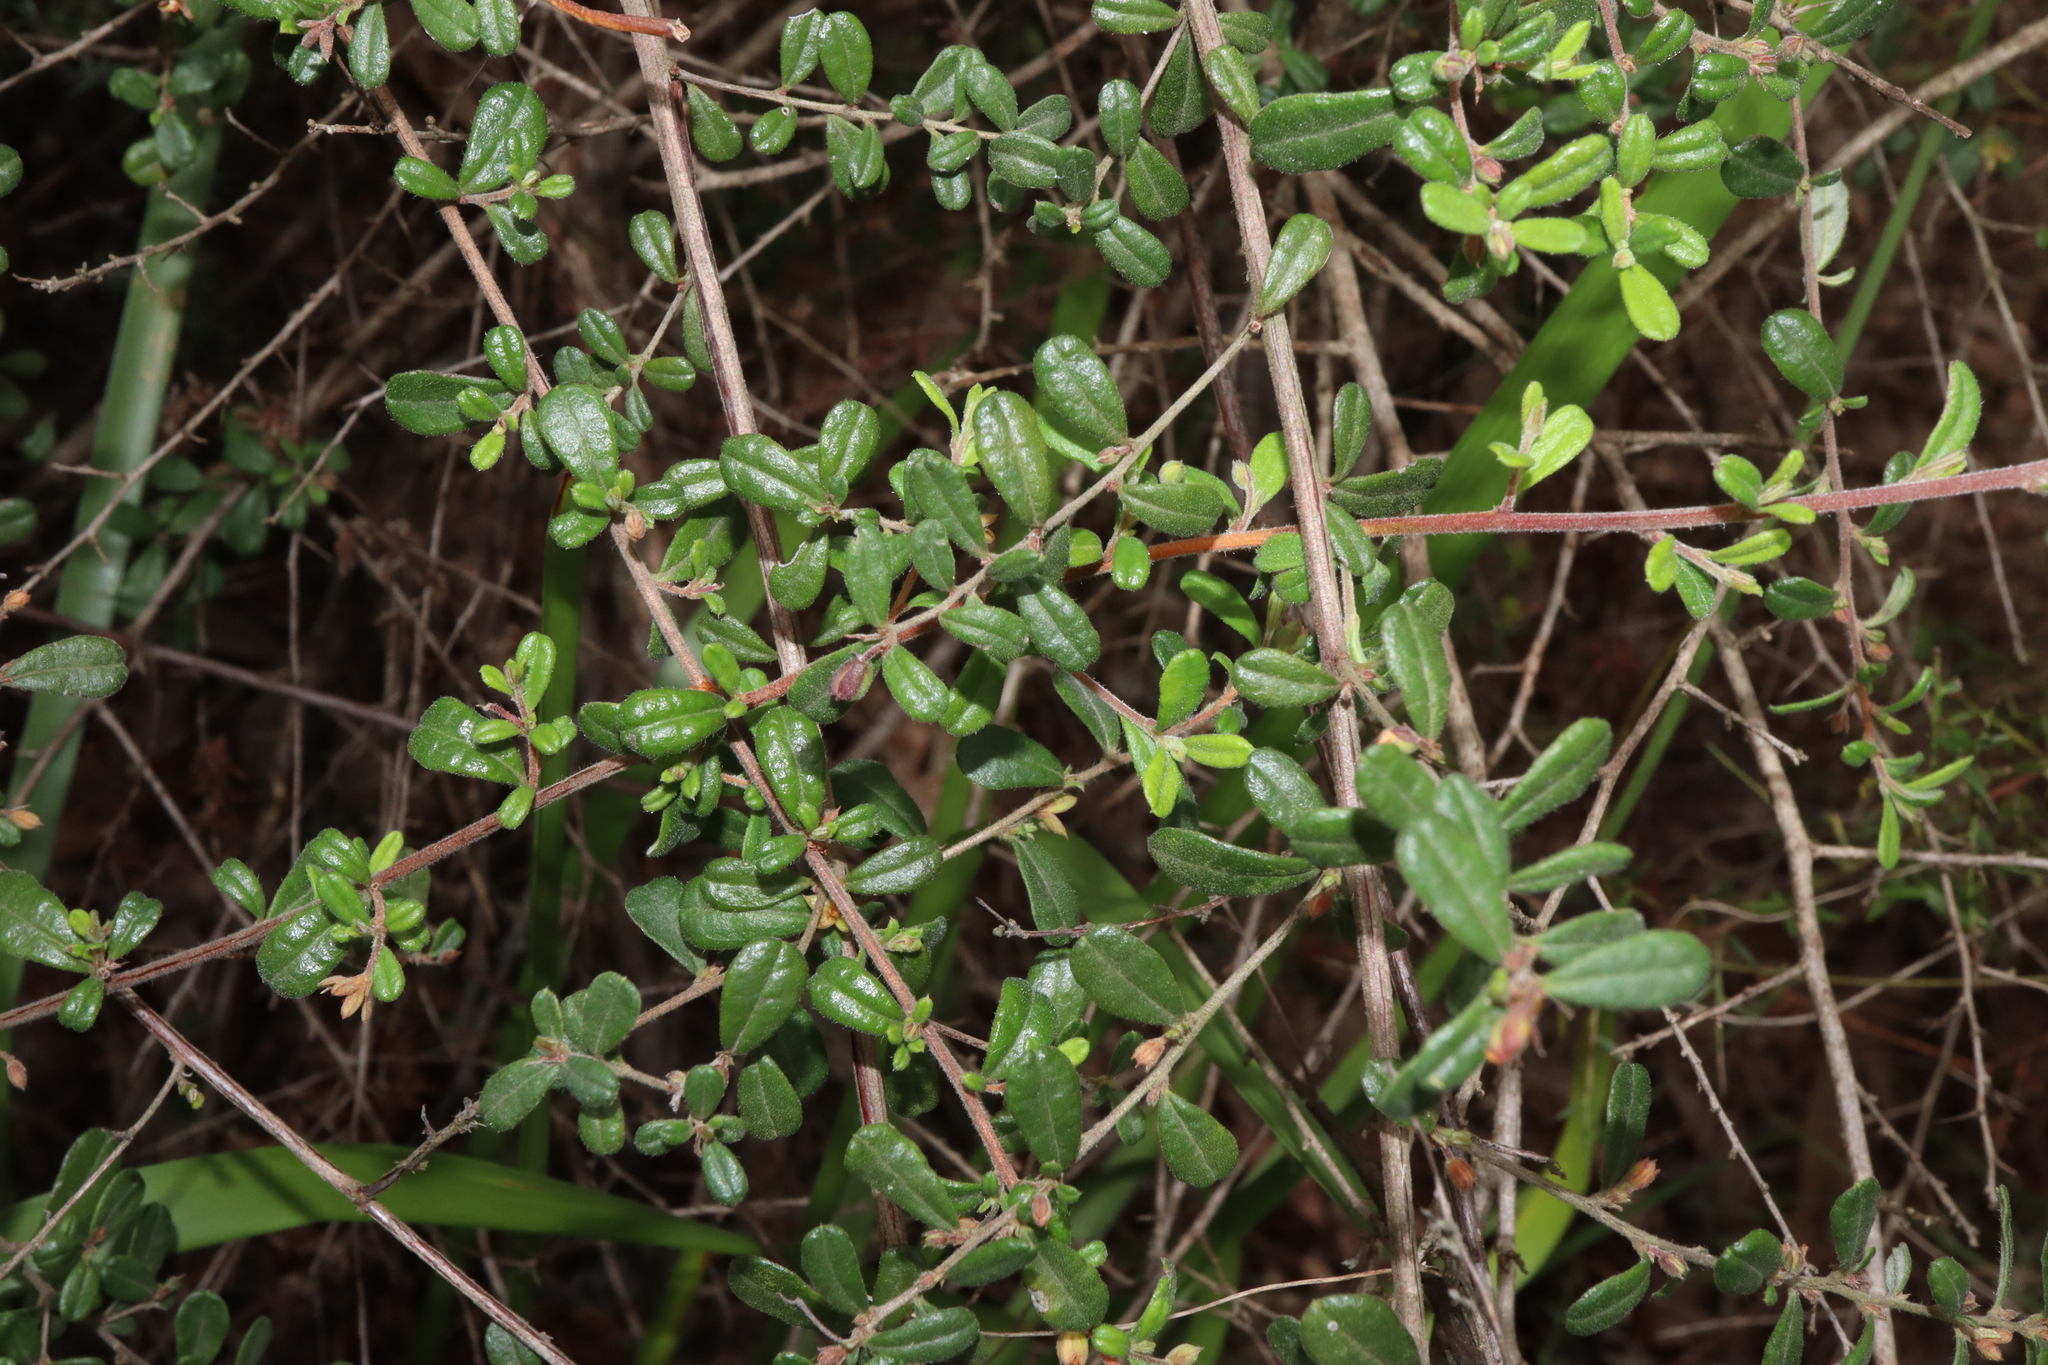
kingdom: Plantae
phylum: Tracheophyta
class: Magnoliopsida
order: Dilleniales
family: Dilleniaceae
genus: Hibbertia
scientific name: Hibbertia aspera
